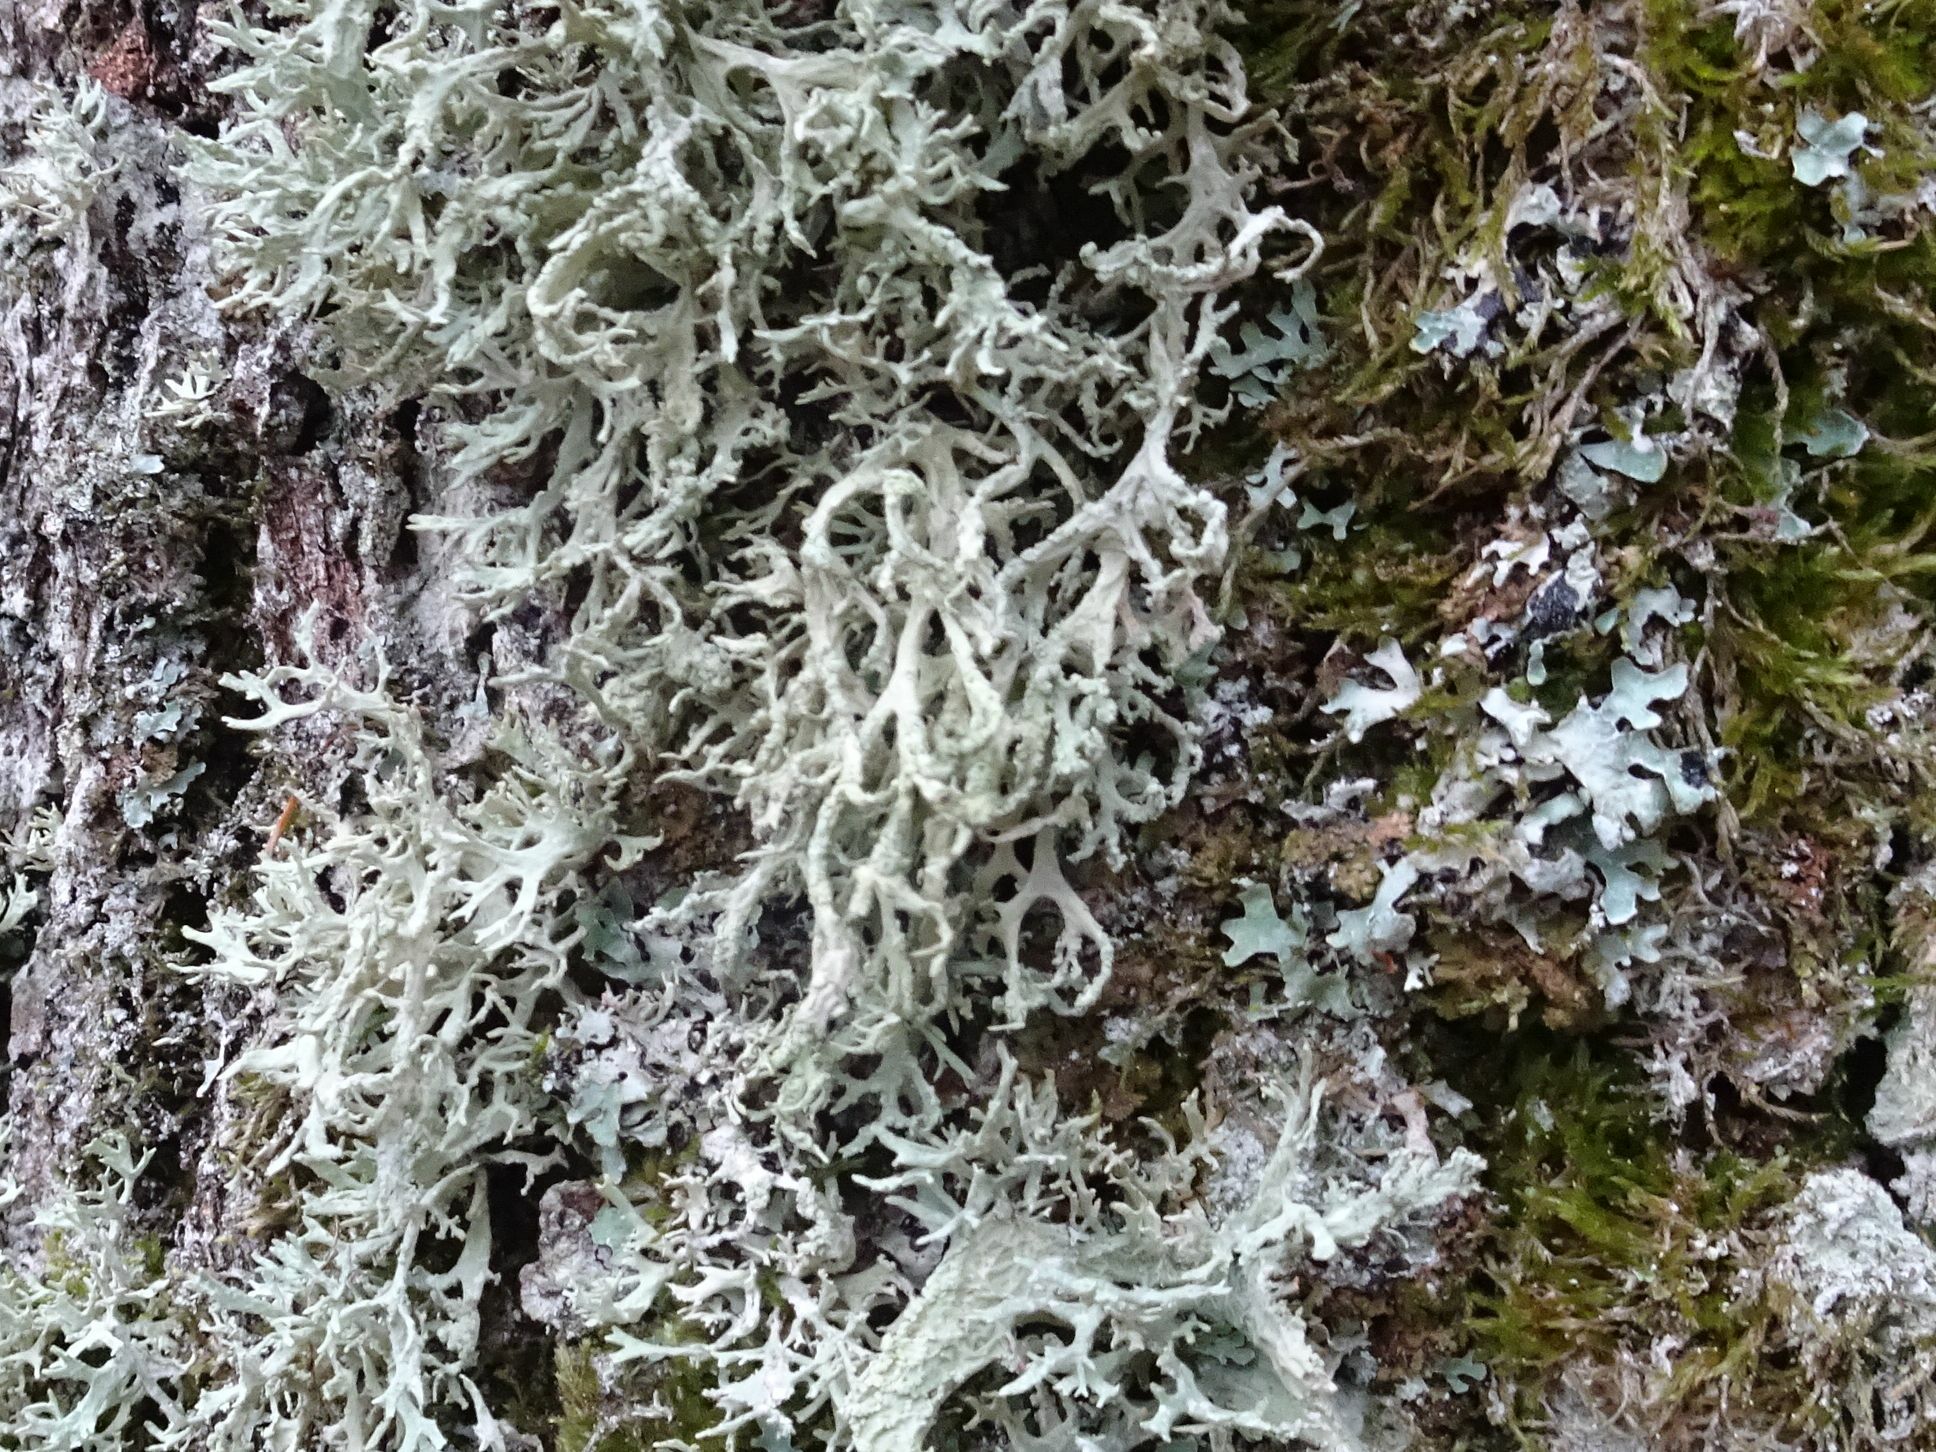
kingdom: Fungi
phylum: Ascomycota
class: Lecanoromycetes
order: Lecanorales
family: Parmeliaceae
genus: Evernia
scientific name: Evernia prunastri
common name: Oak moss
